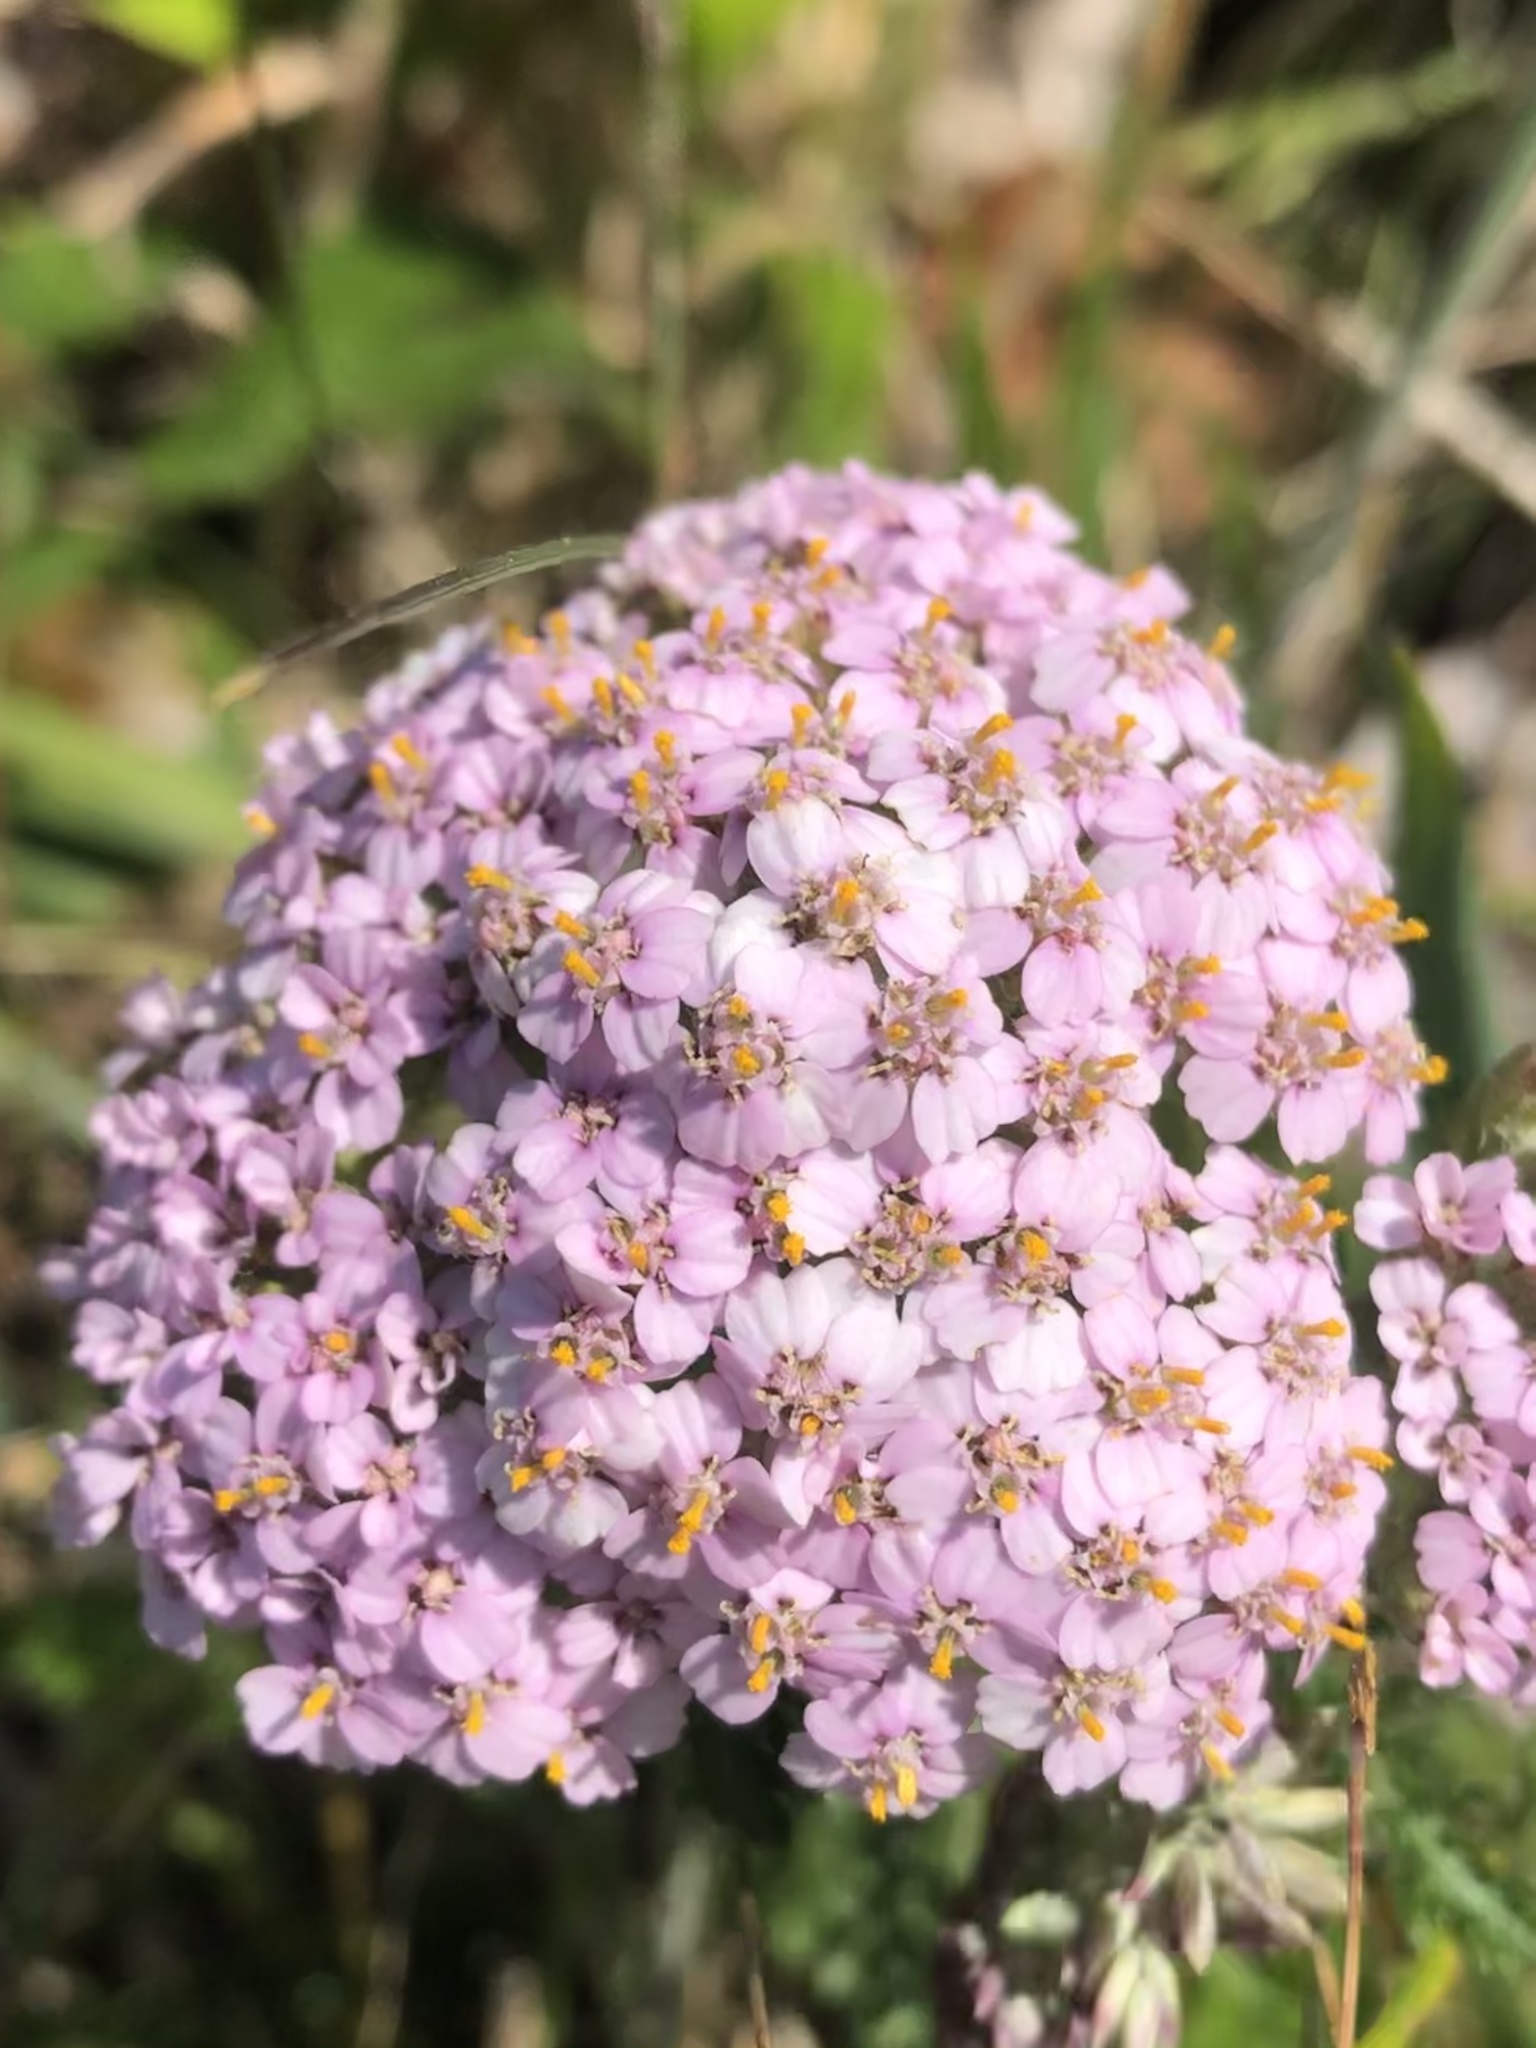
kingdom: Plantae
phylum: Tracheophyta
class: Magnoliopsida
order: Asterales
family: Asteraceae
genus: Achillea
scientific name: Achillea millefolium
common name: Yarrow
